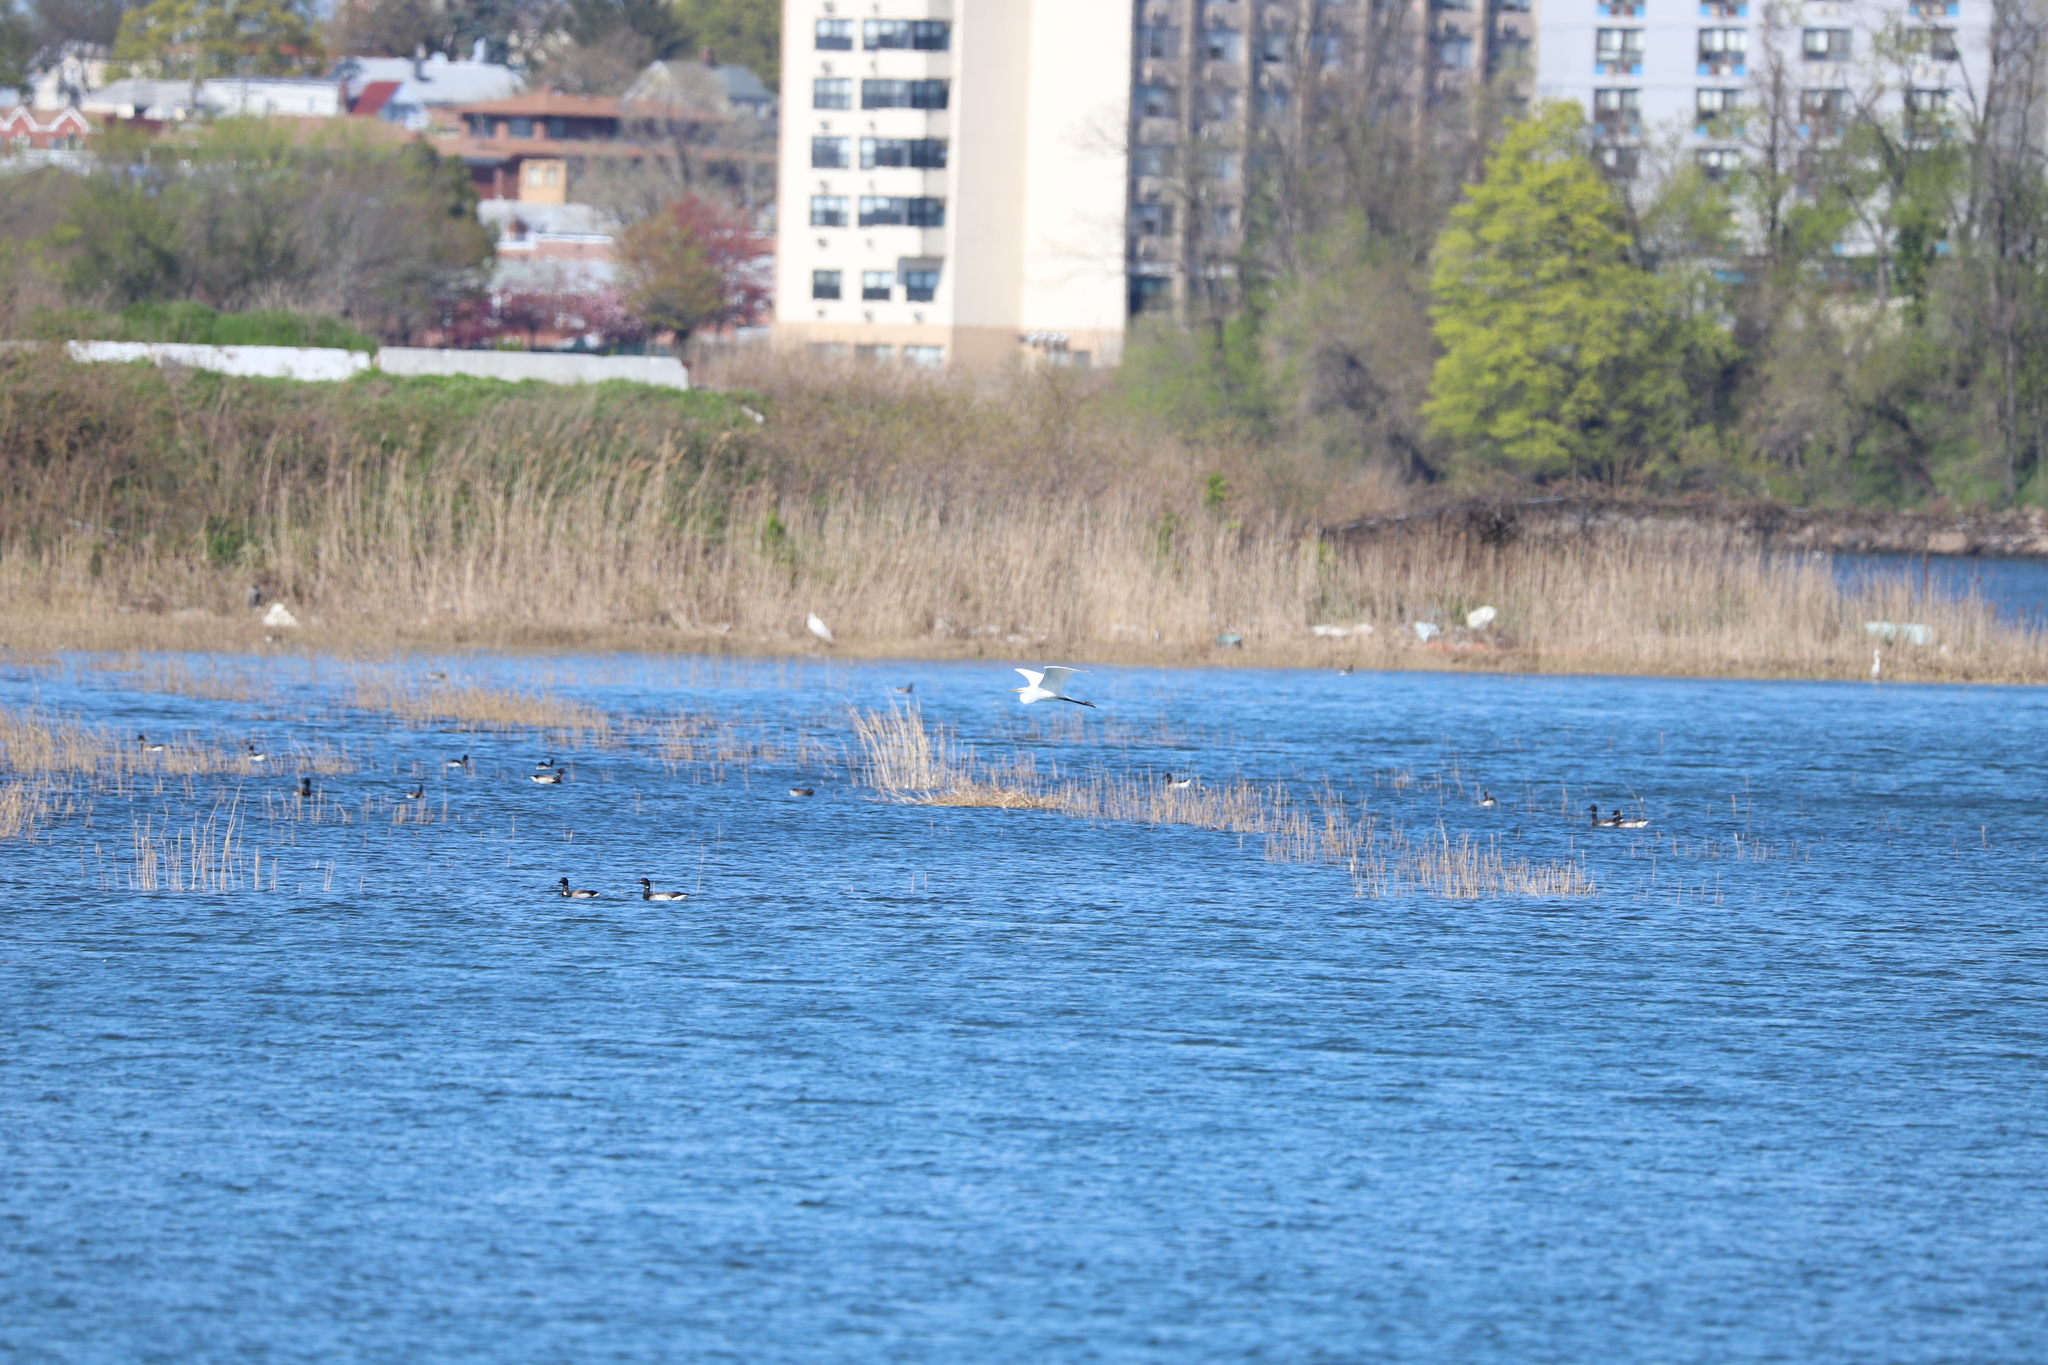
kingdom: Animalia
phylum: Chordata
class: Aves
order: Pelecaniformes
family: Ardeidae
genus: Ardea
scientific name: Ardea alba
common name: Great egret
